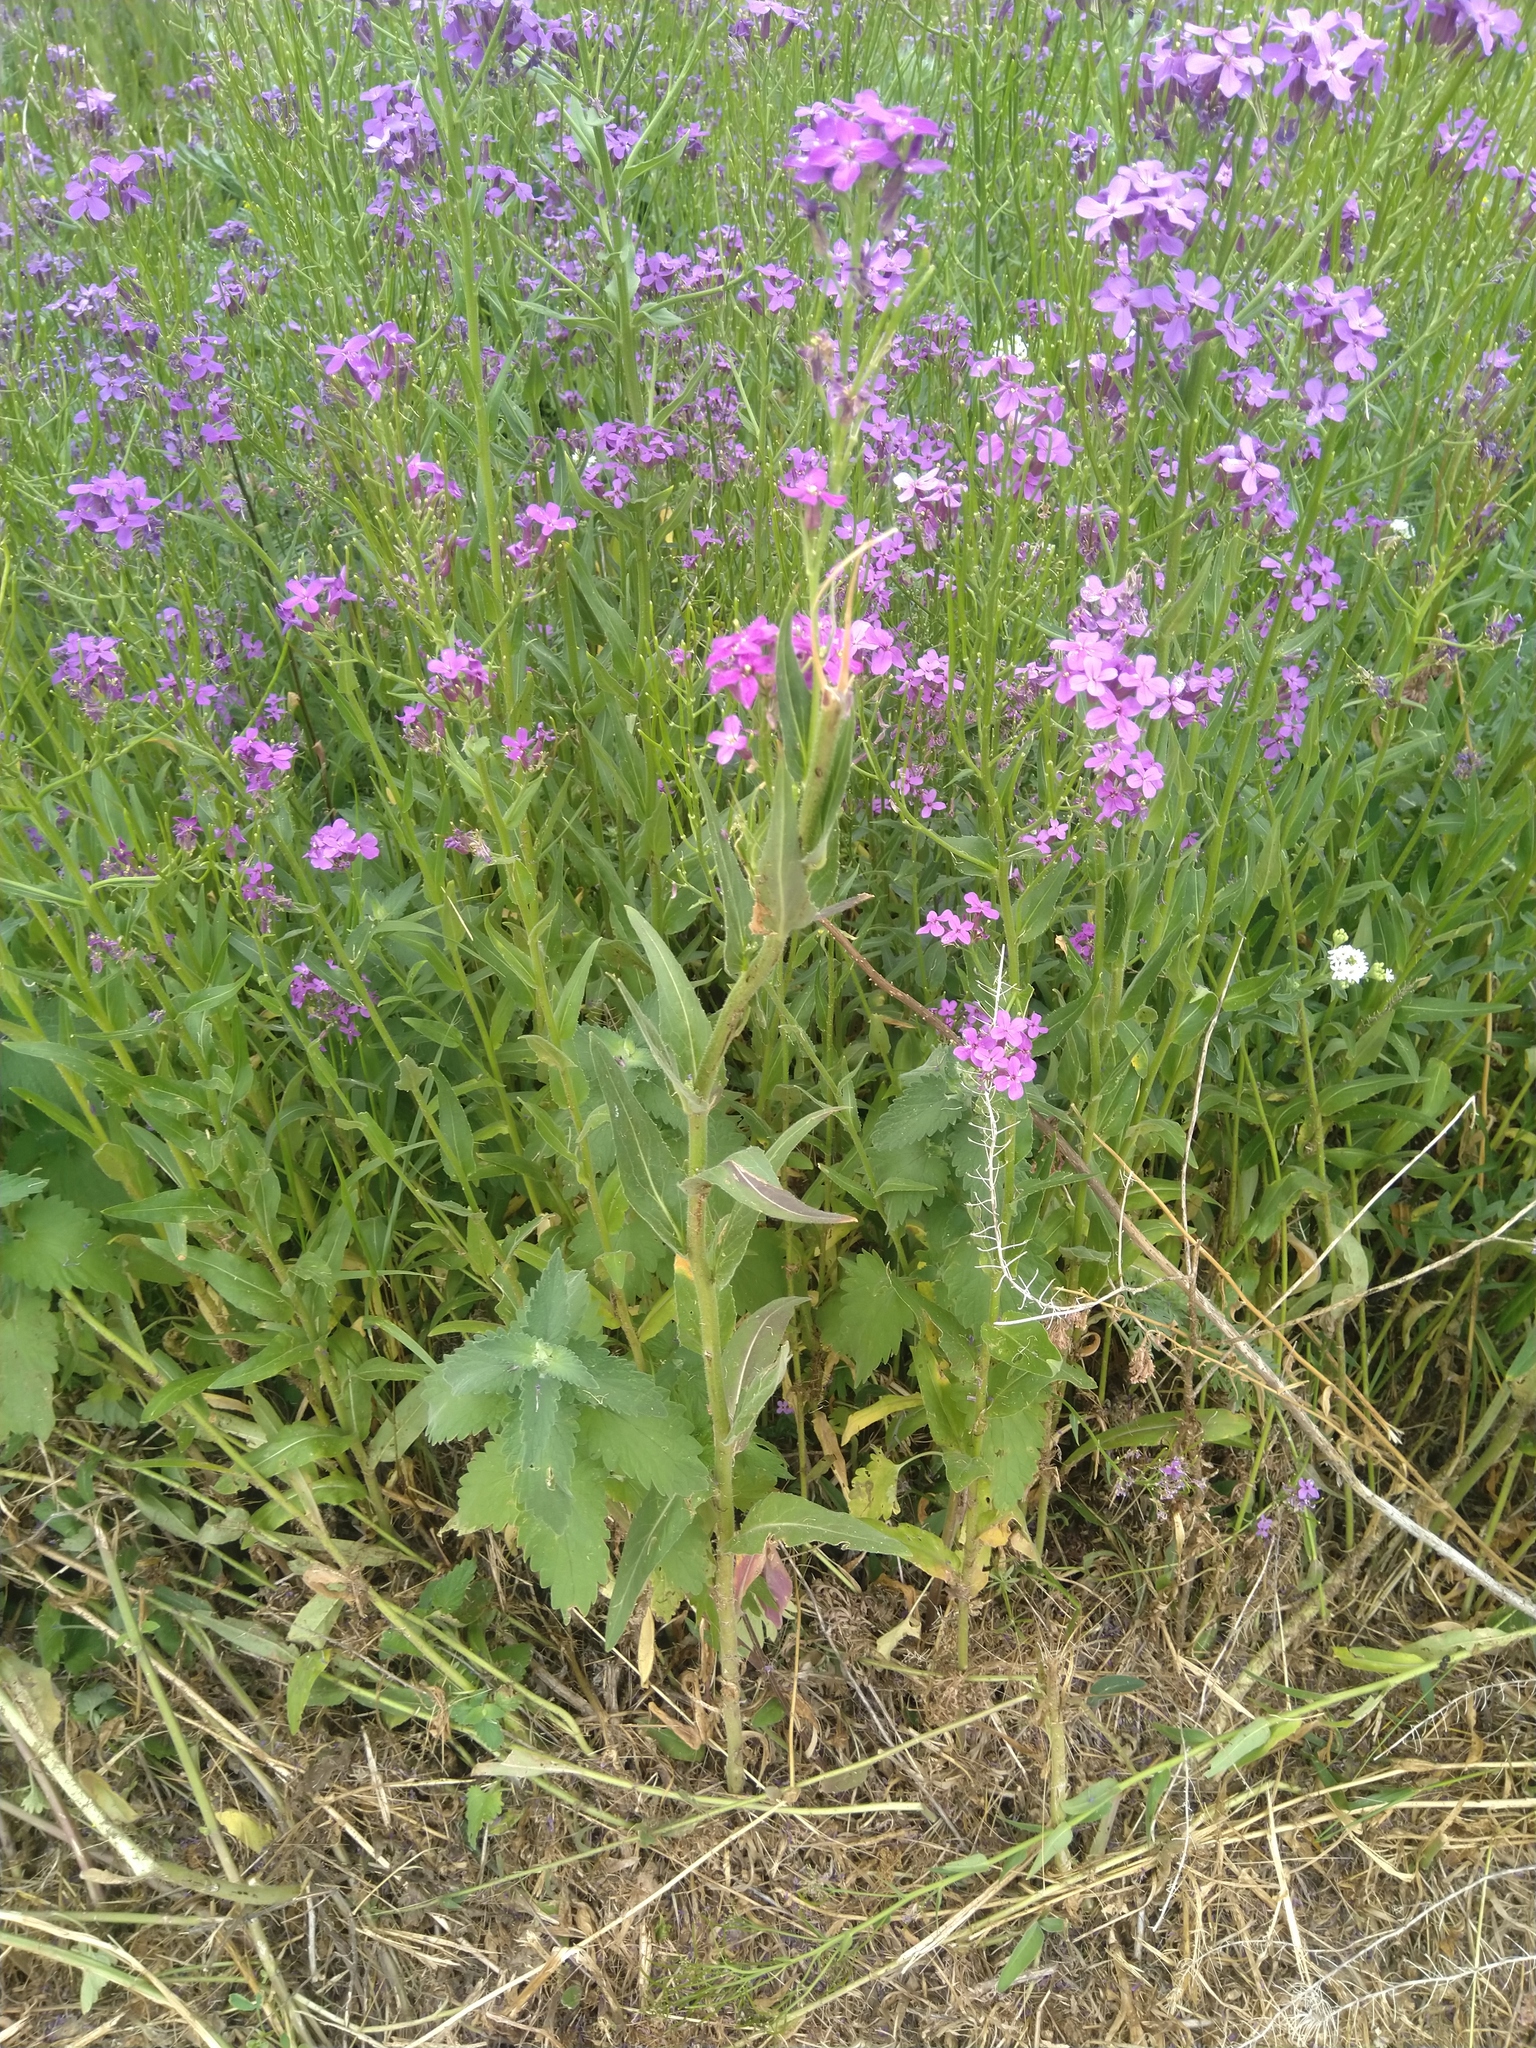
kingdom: Plantae
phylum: Tracheophyta
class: Magnoliopsida
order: Brassicales
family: Brassicaceae
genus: Hesperis
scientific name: Hesperis matronalis
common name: Dame's-violet
